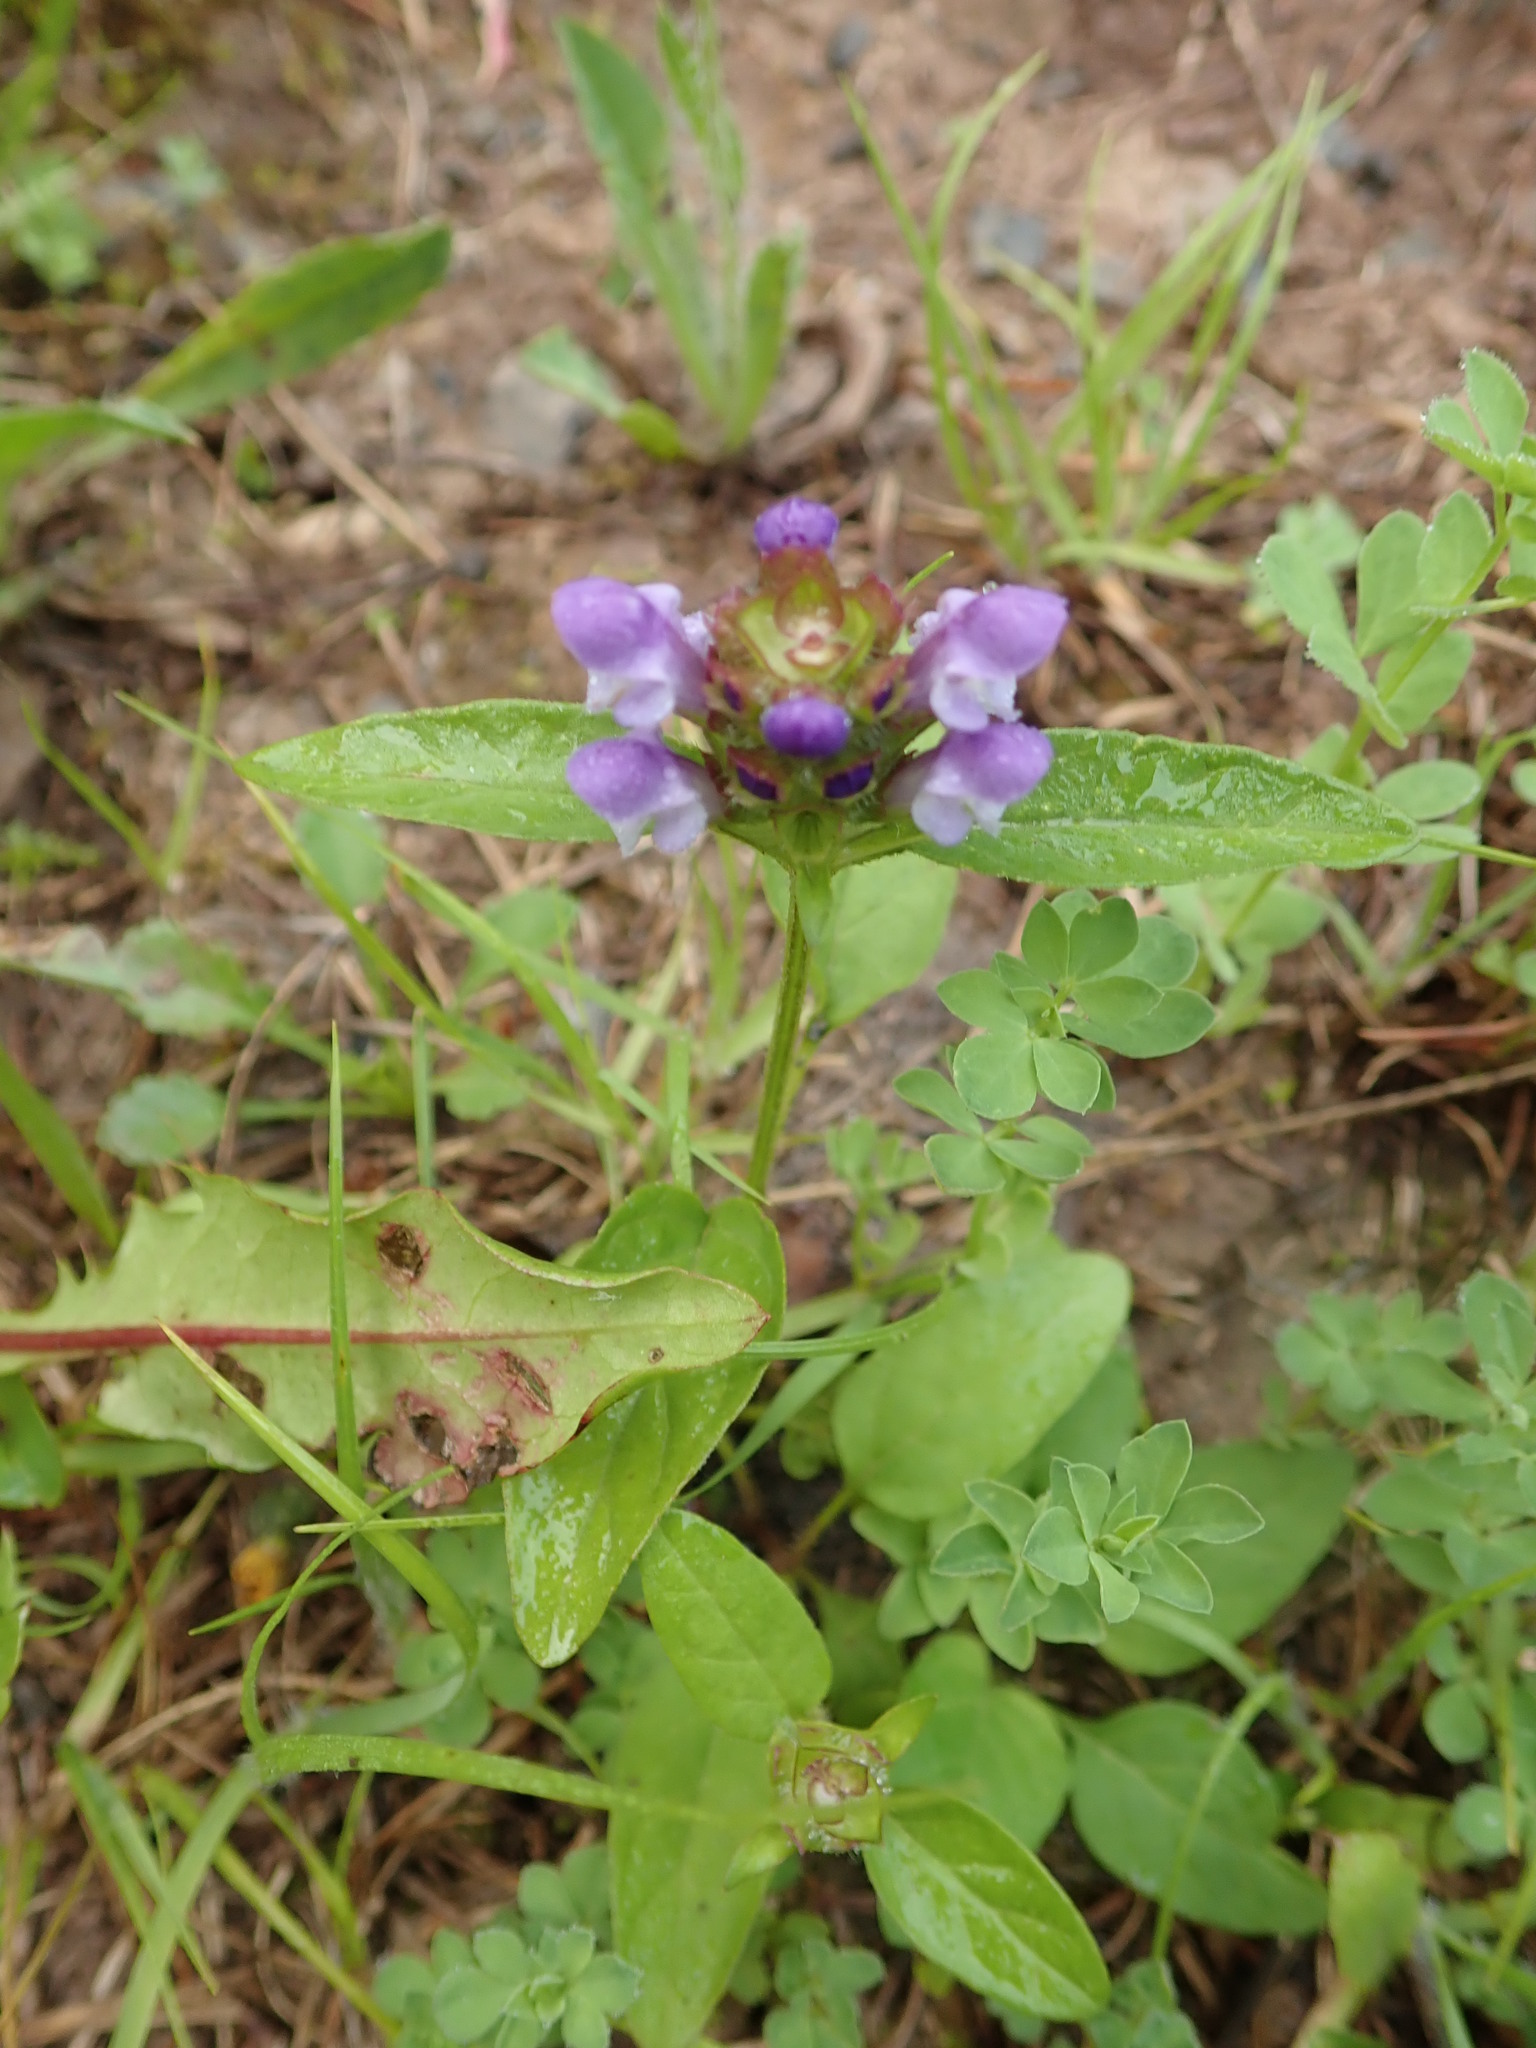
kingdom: Plantae
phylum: Tracheophyta
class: Magnoliopsida
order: Lamiales
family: Lamiaceae
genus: Prunella
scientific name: Prunella vulgaris
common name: Heal-all
